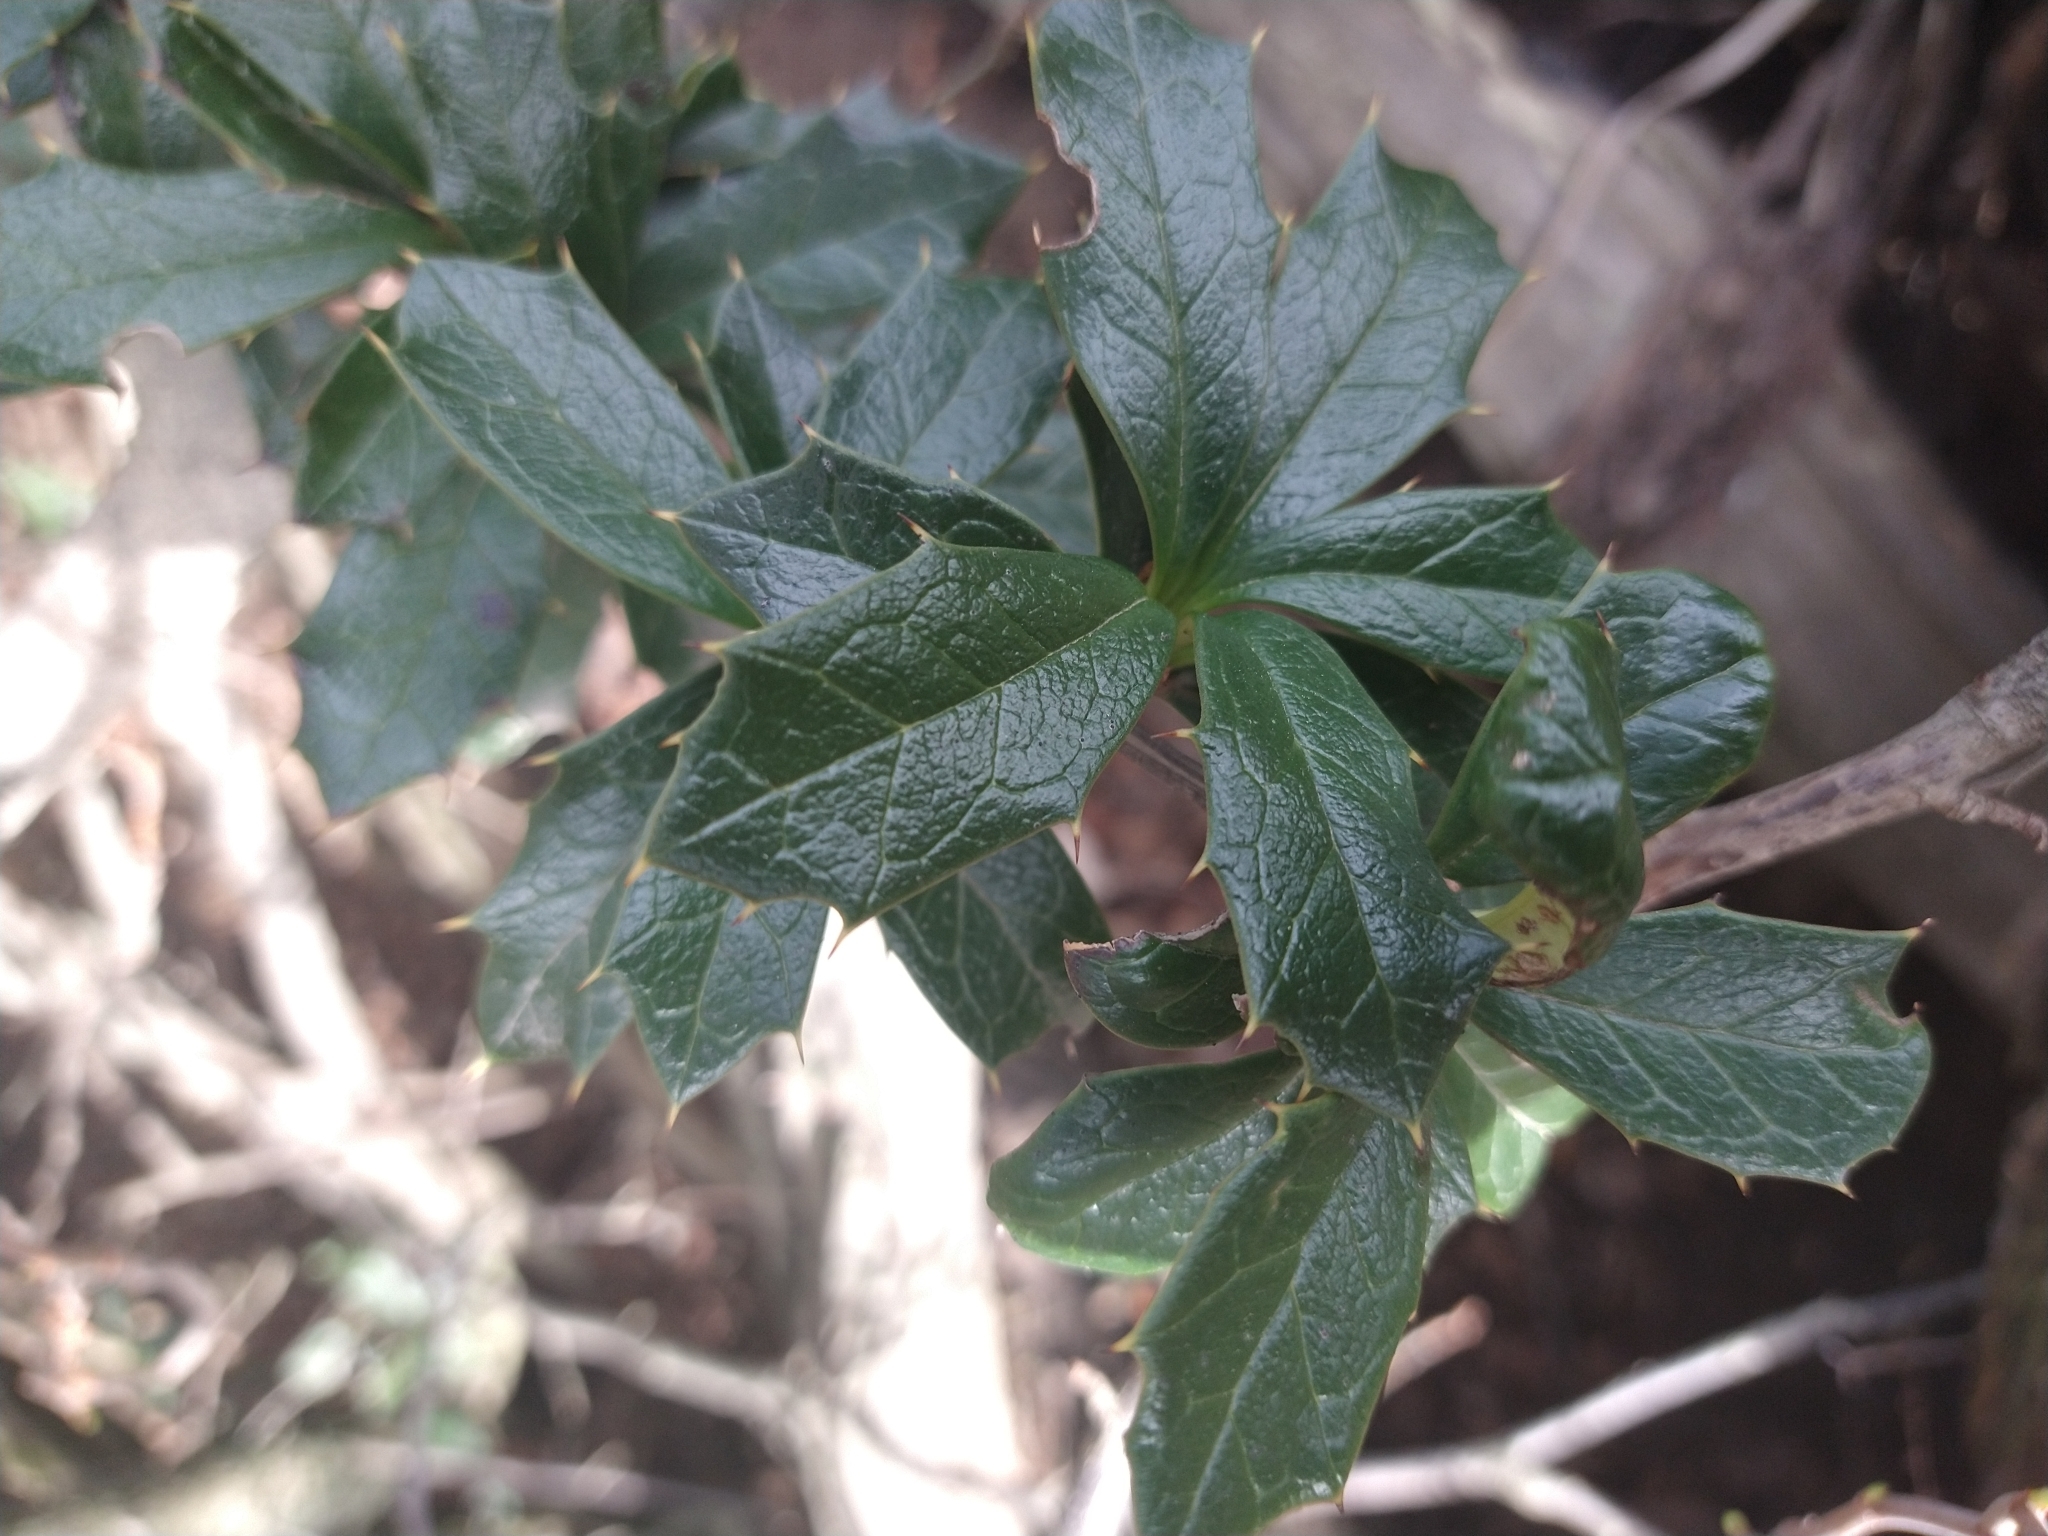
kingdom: Plantae
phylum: Tracheophyta
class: Magnoliopsida
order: Ranunculales
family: Berberidaceae
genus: Berberis
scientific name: Berberis ilicifolia
